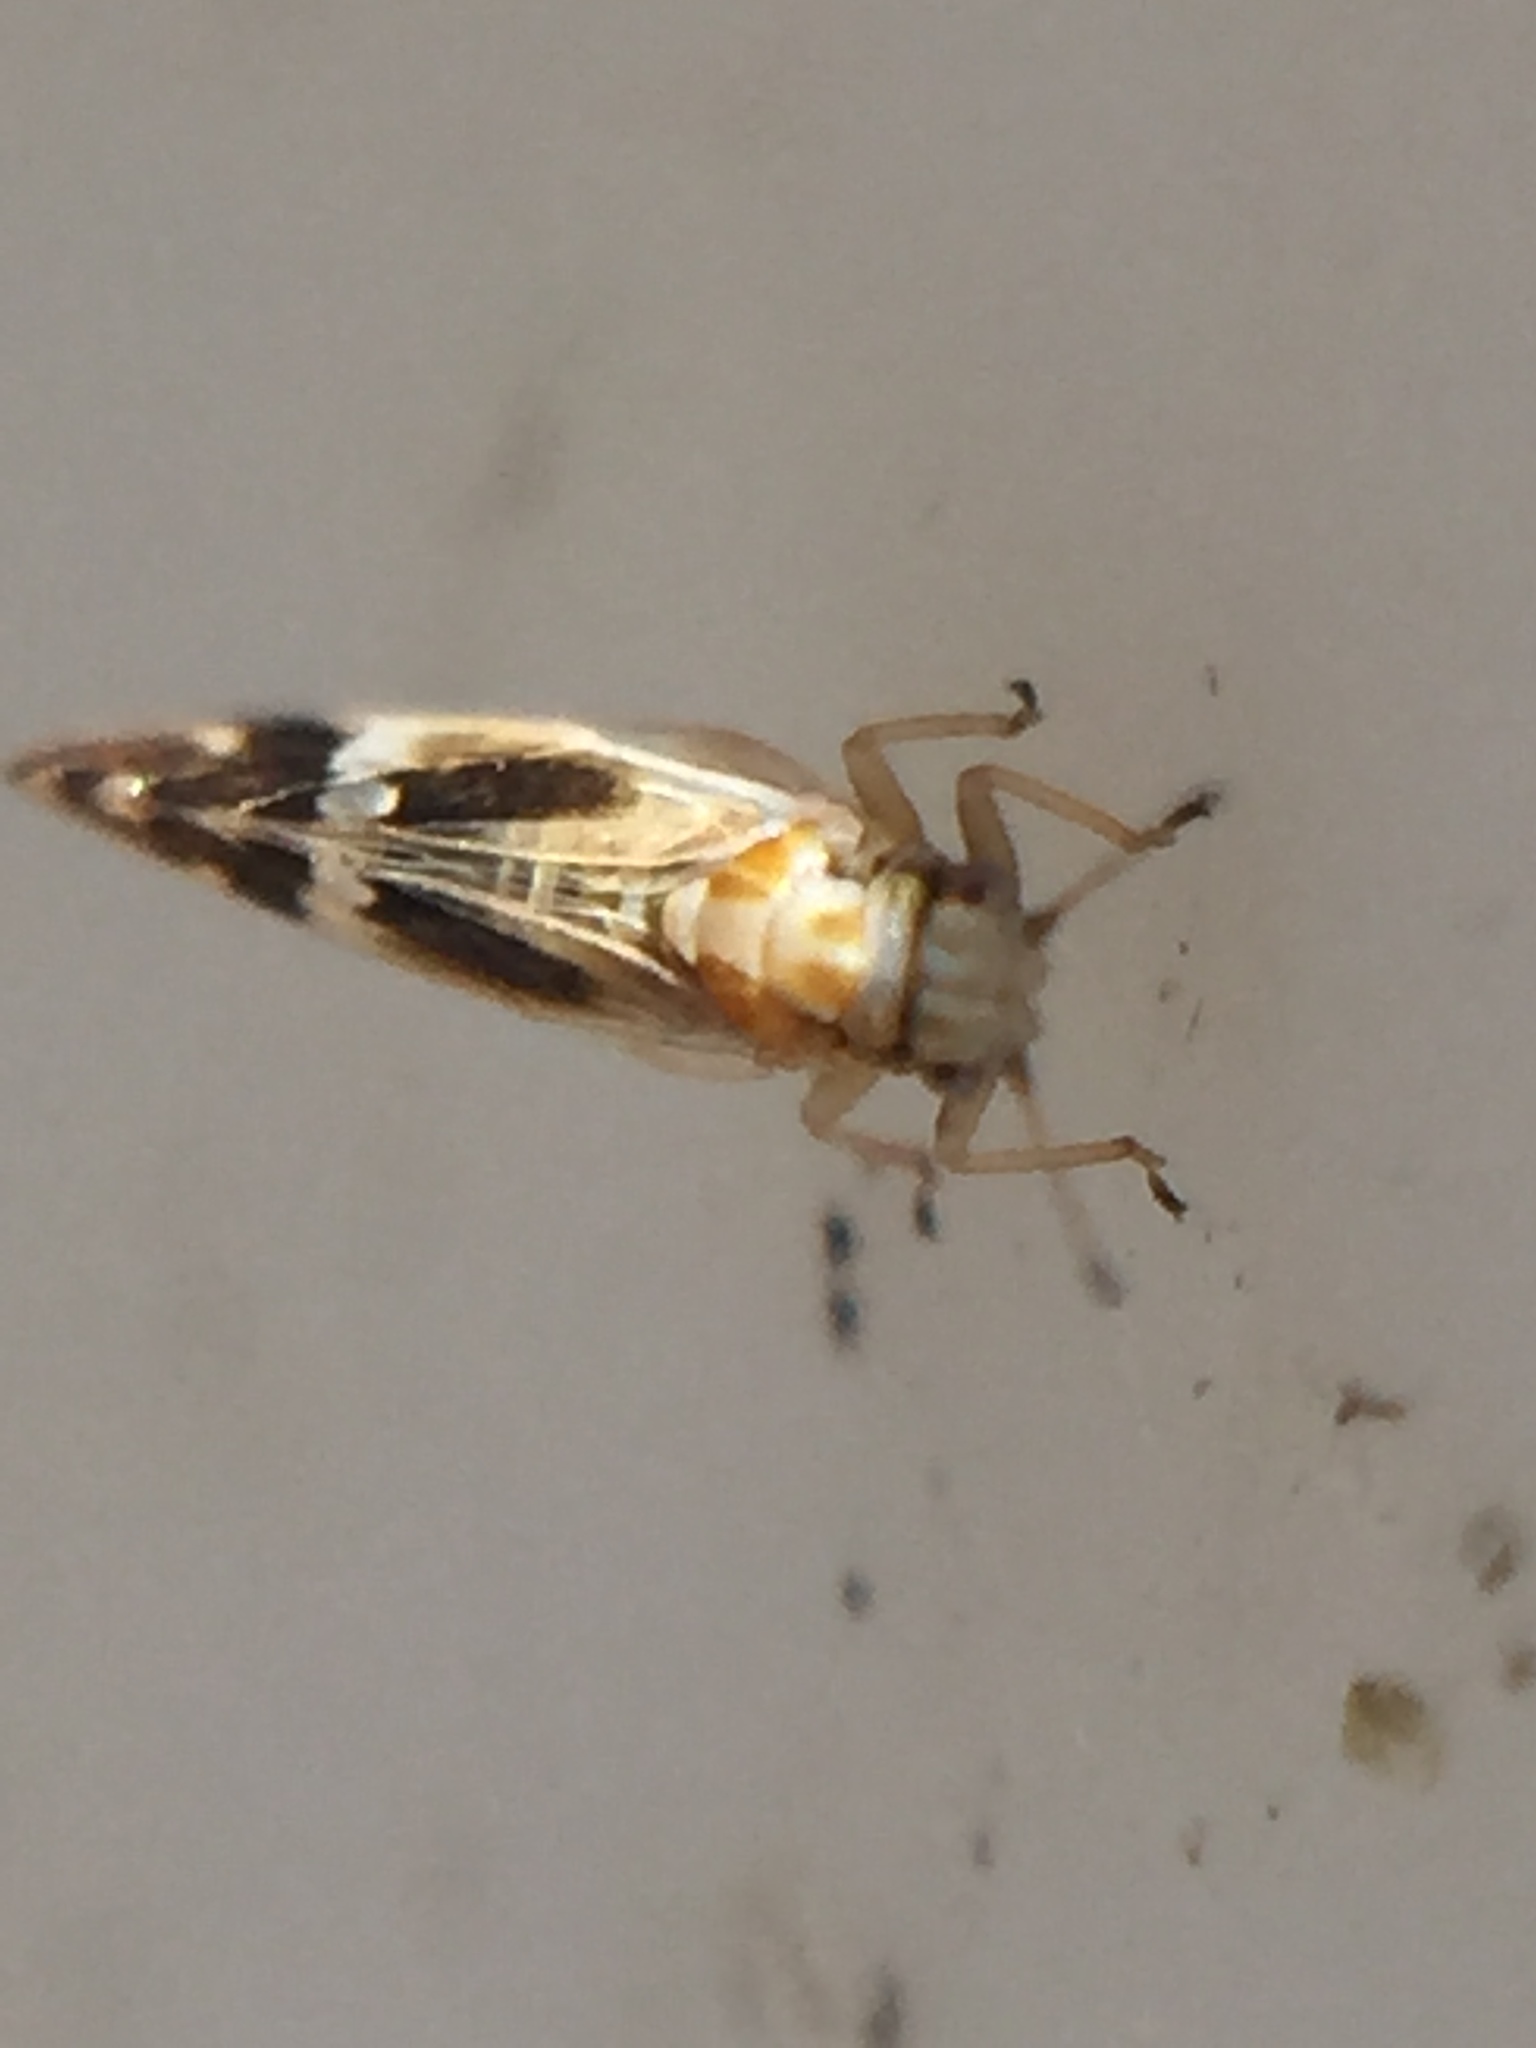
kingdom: Animalia
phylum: Arthropoda
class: Insecta
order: Hemiptera
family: Triozidae
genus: Casuarinicola
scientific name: Casuarinicola nigrimaculatus
